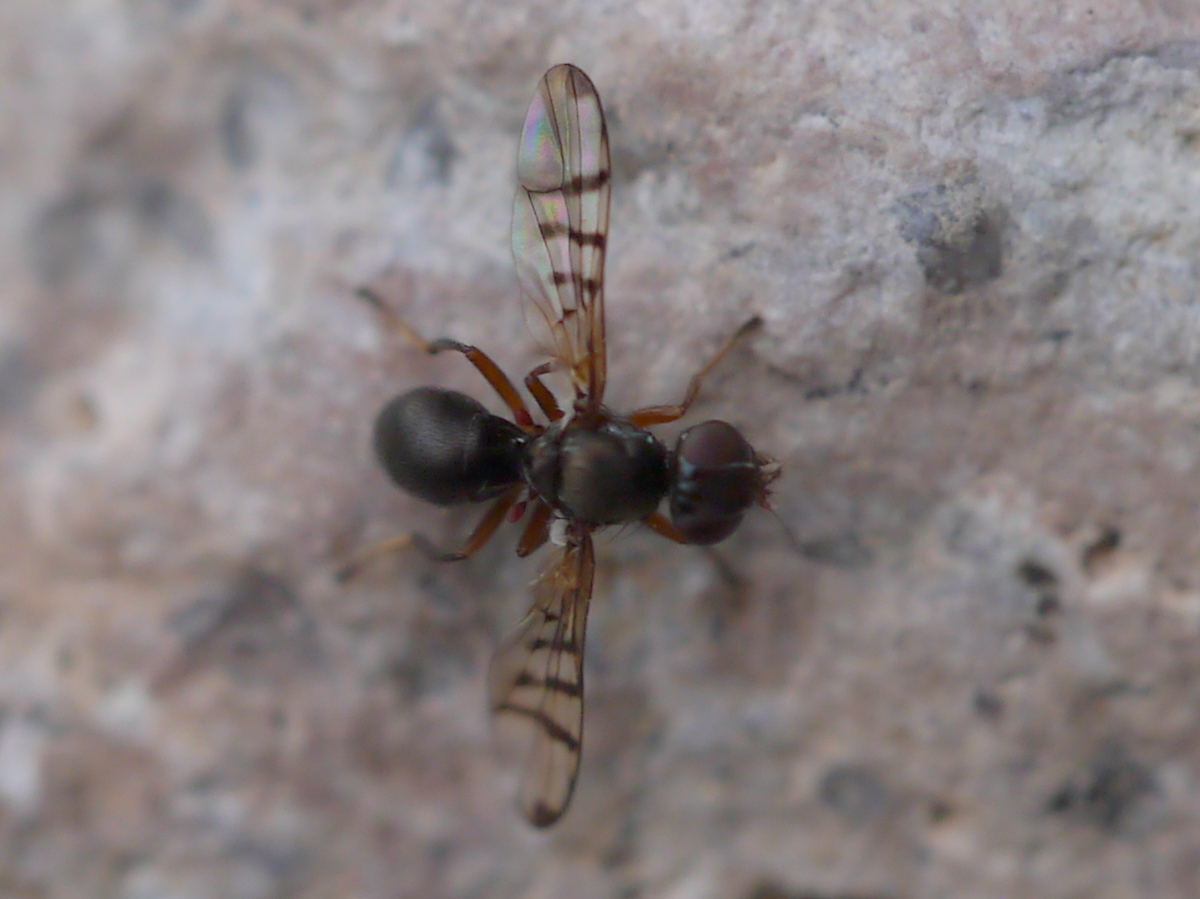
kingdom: Animalia
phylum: Arthropoda
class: Insecta
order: Diptera
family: Platystomatidae
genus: Rivellia
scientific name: Rivellia occulta
